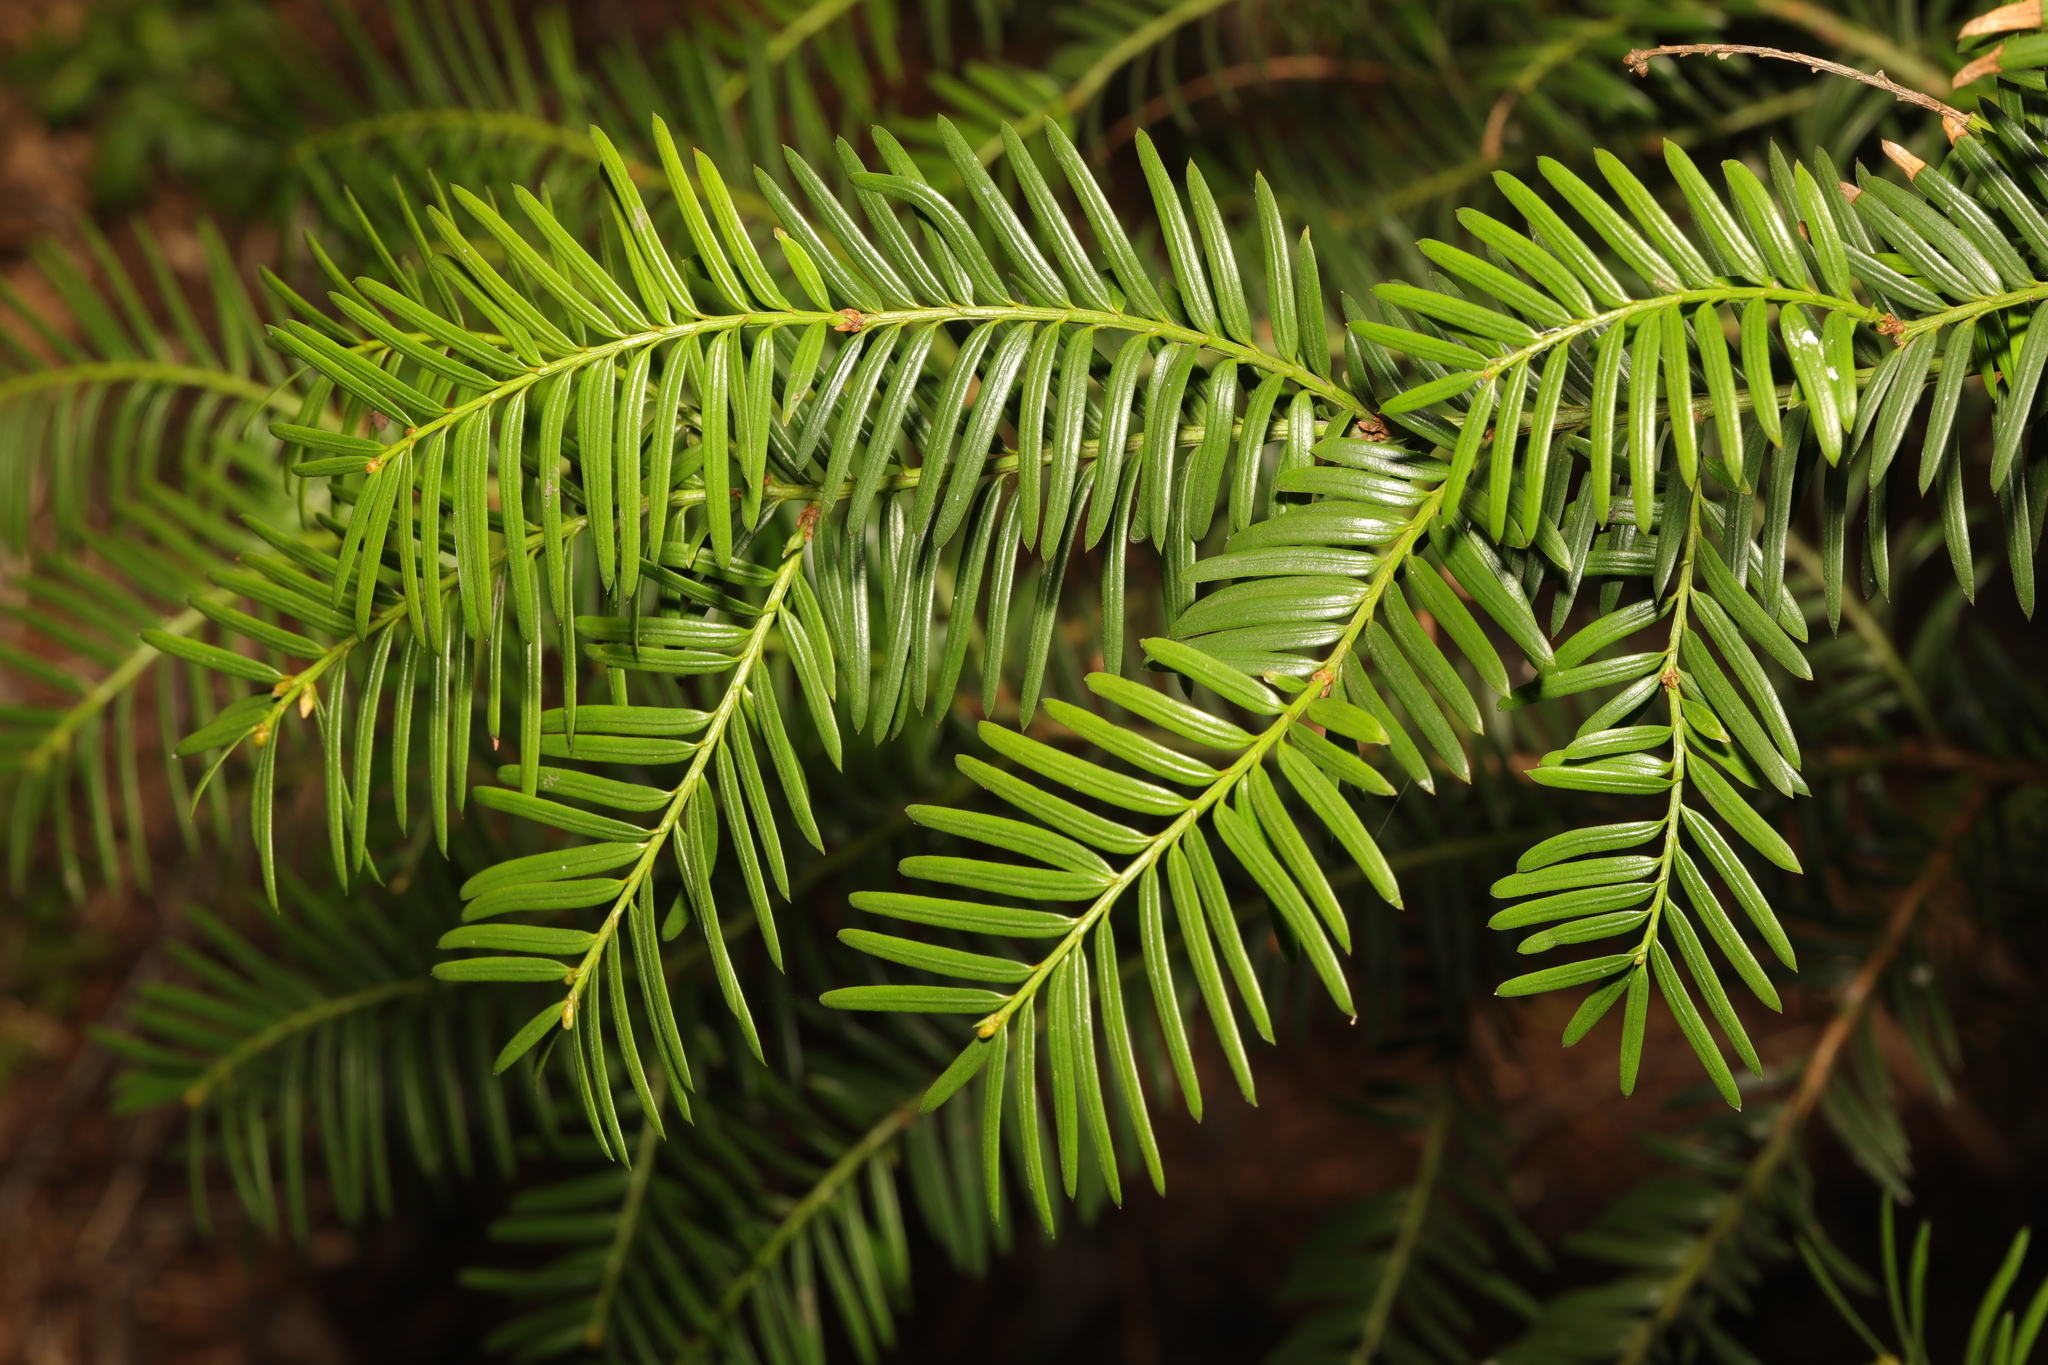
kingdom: Plantae
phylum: Tracheophyta
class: Pinopsida
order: Pinales
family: Taxaceae
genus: Taxus
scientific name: Taxus baccata
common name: Yew
